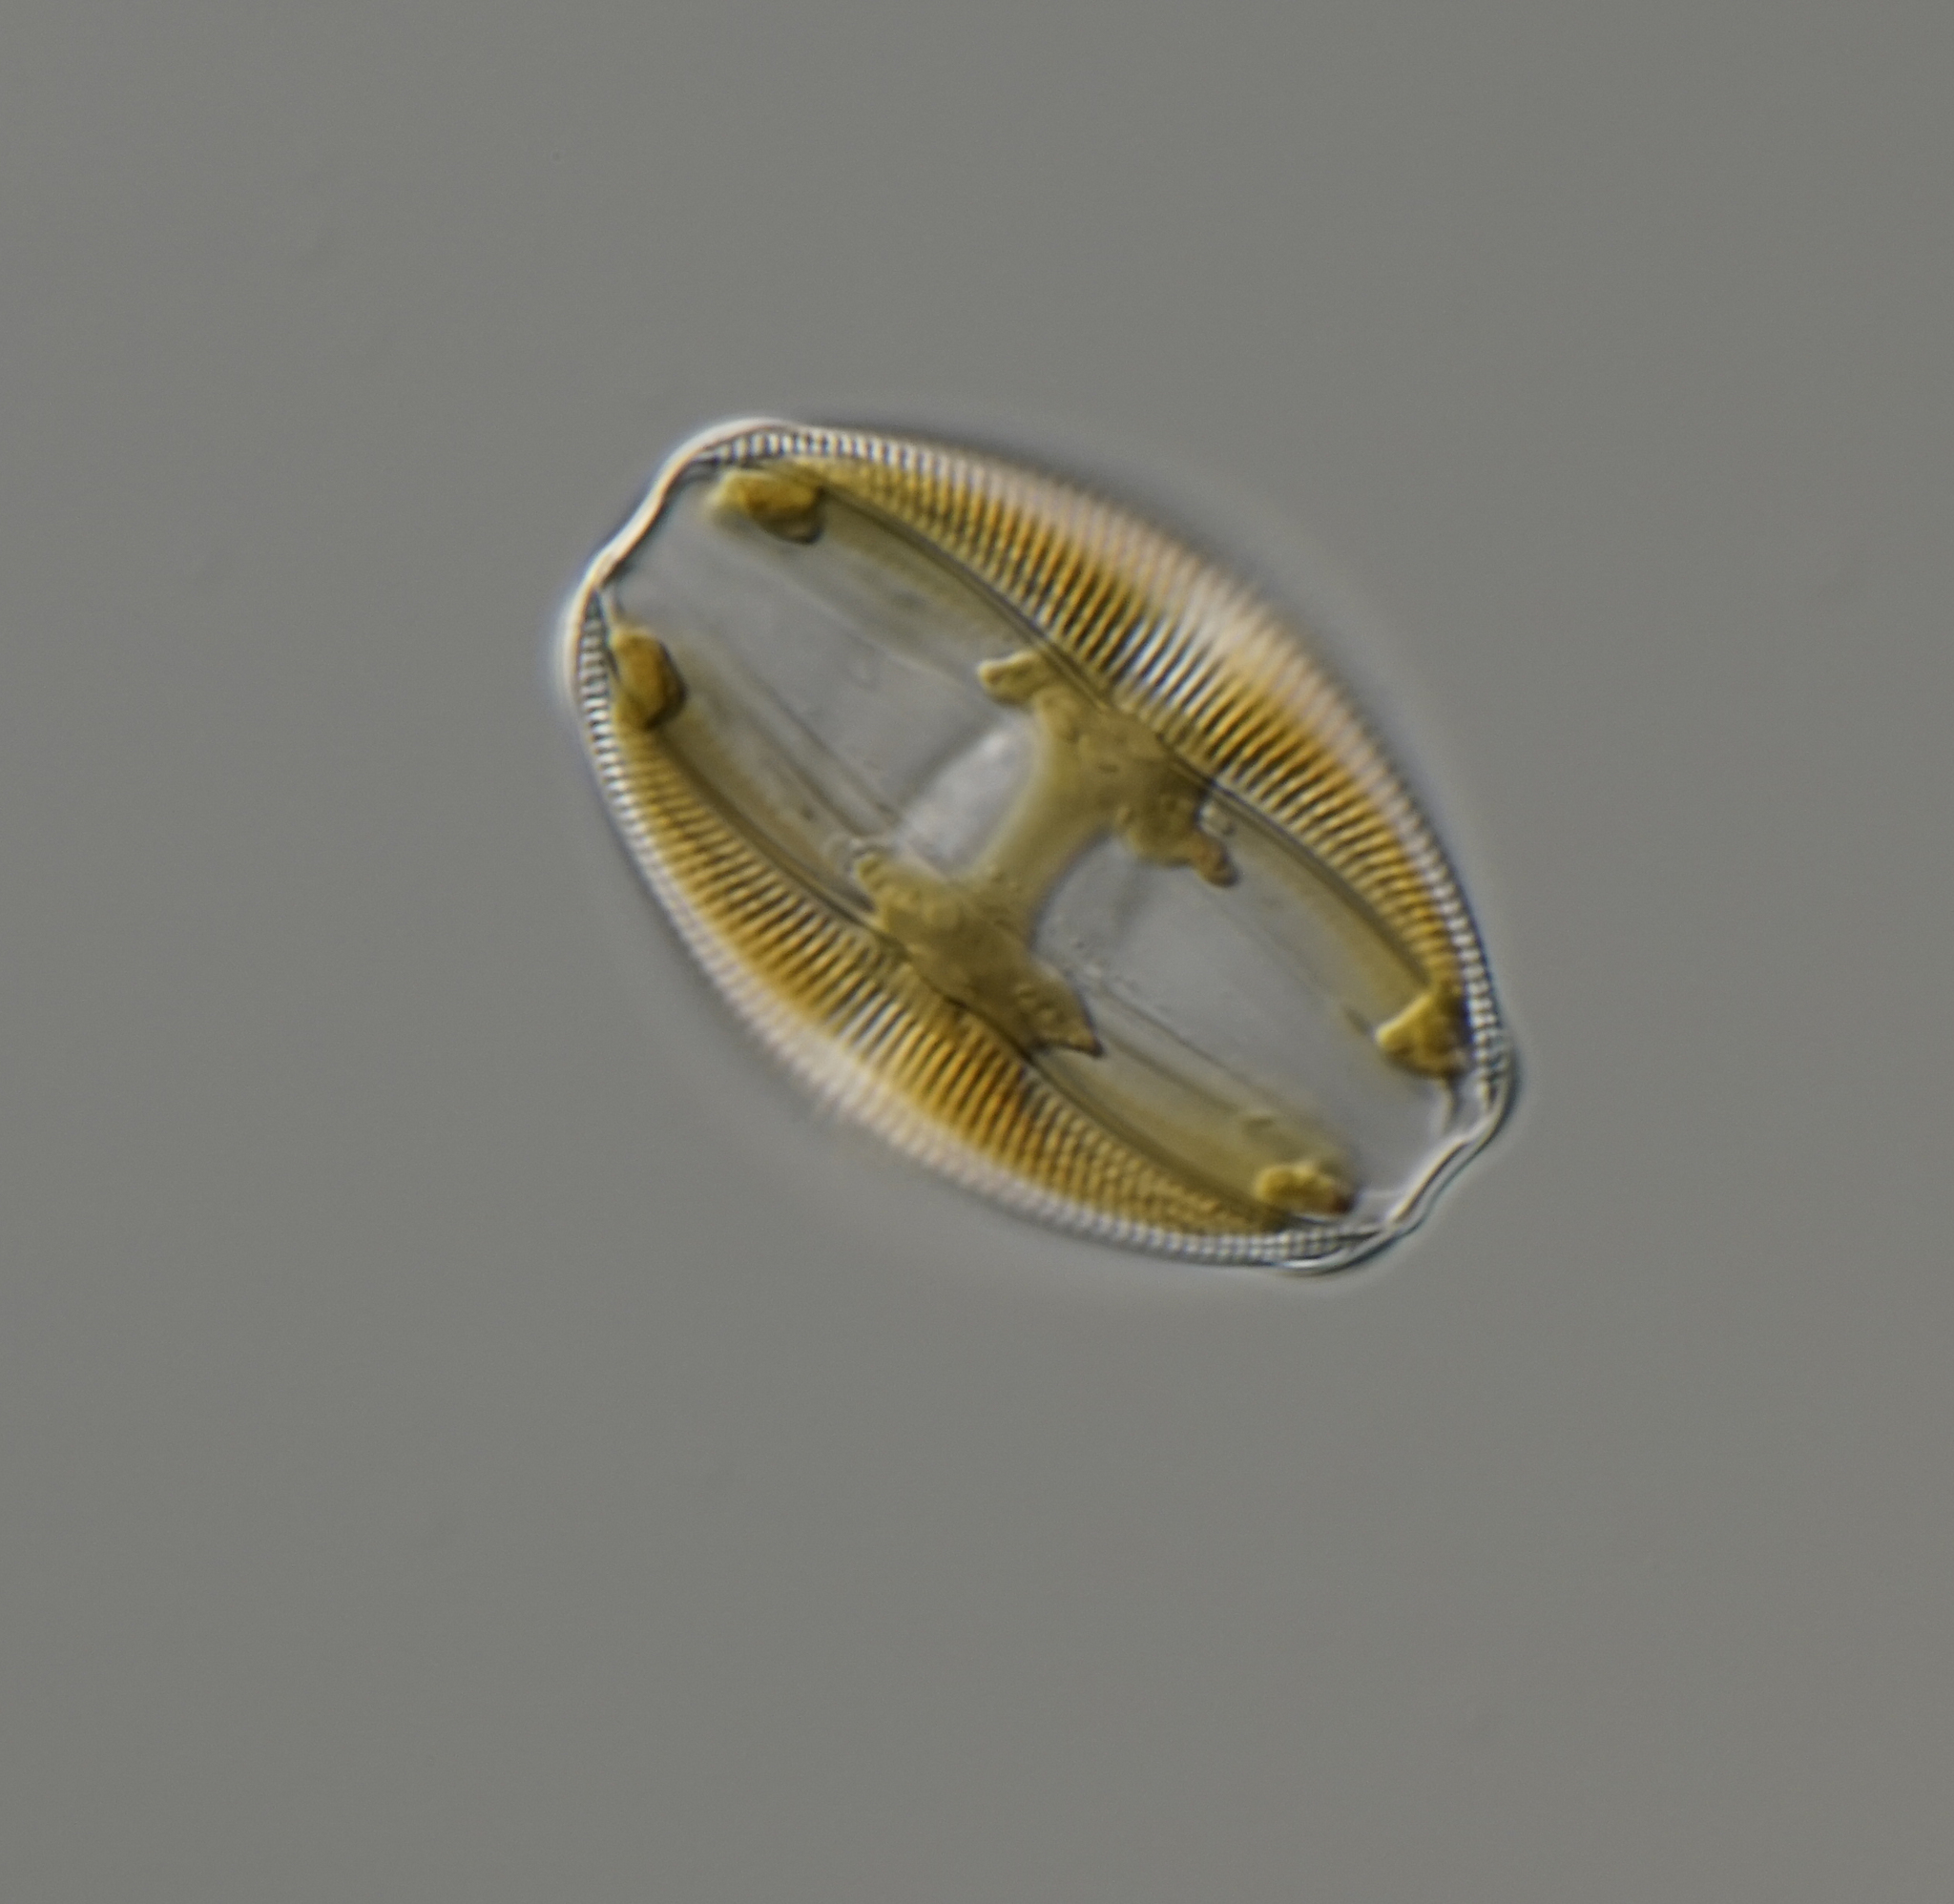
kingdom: Chromista
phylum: Ochrophyta
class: Bacillariophyceae
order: Thalassiophysales
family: Catenulaceae
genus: Amphora
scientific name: Amphora ovalis
